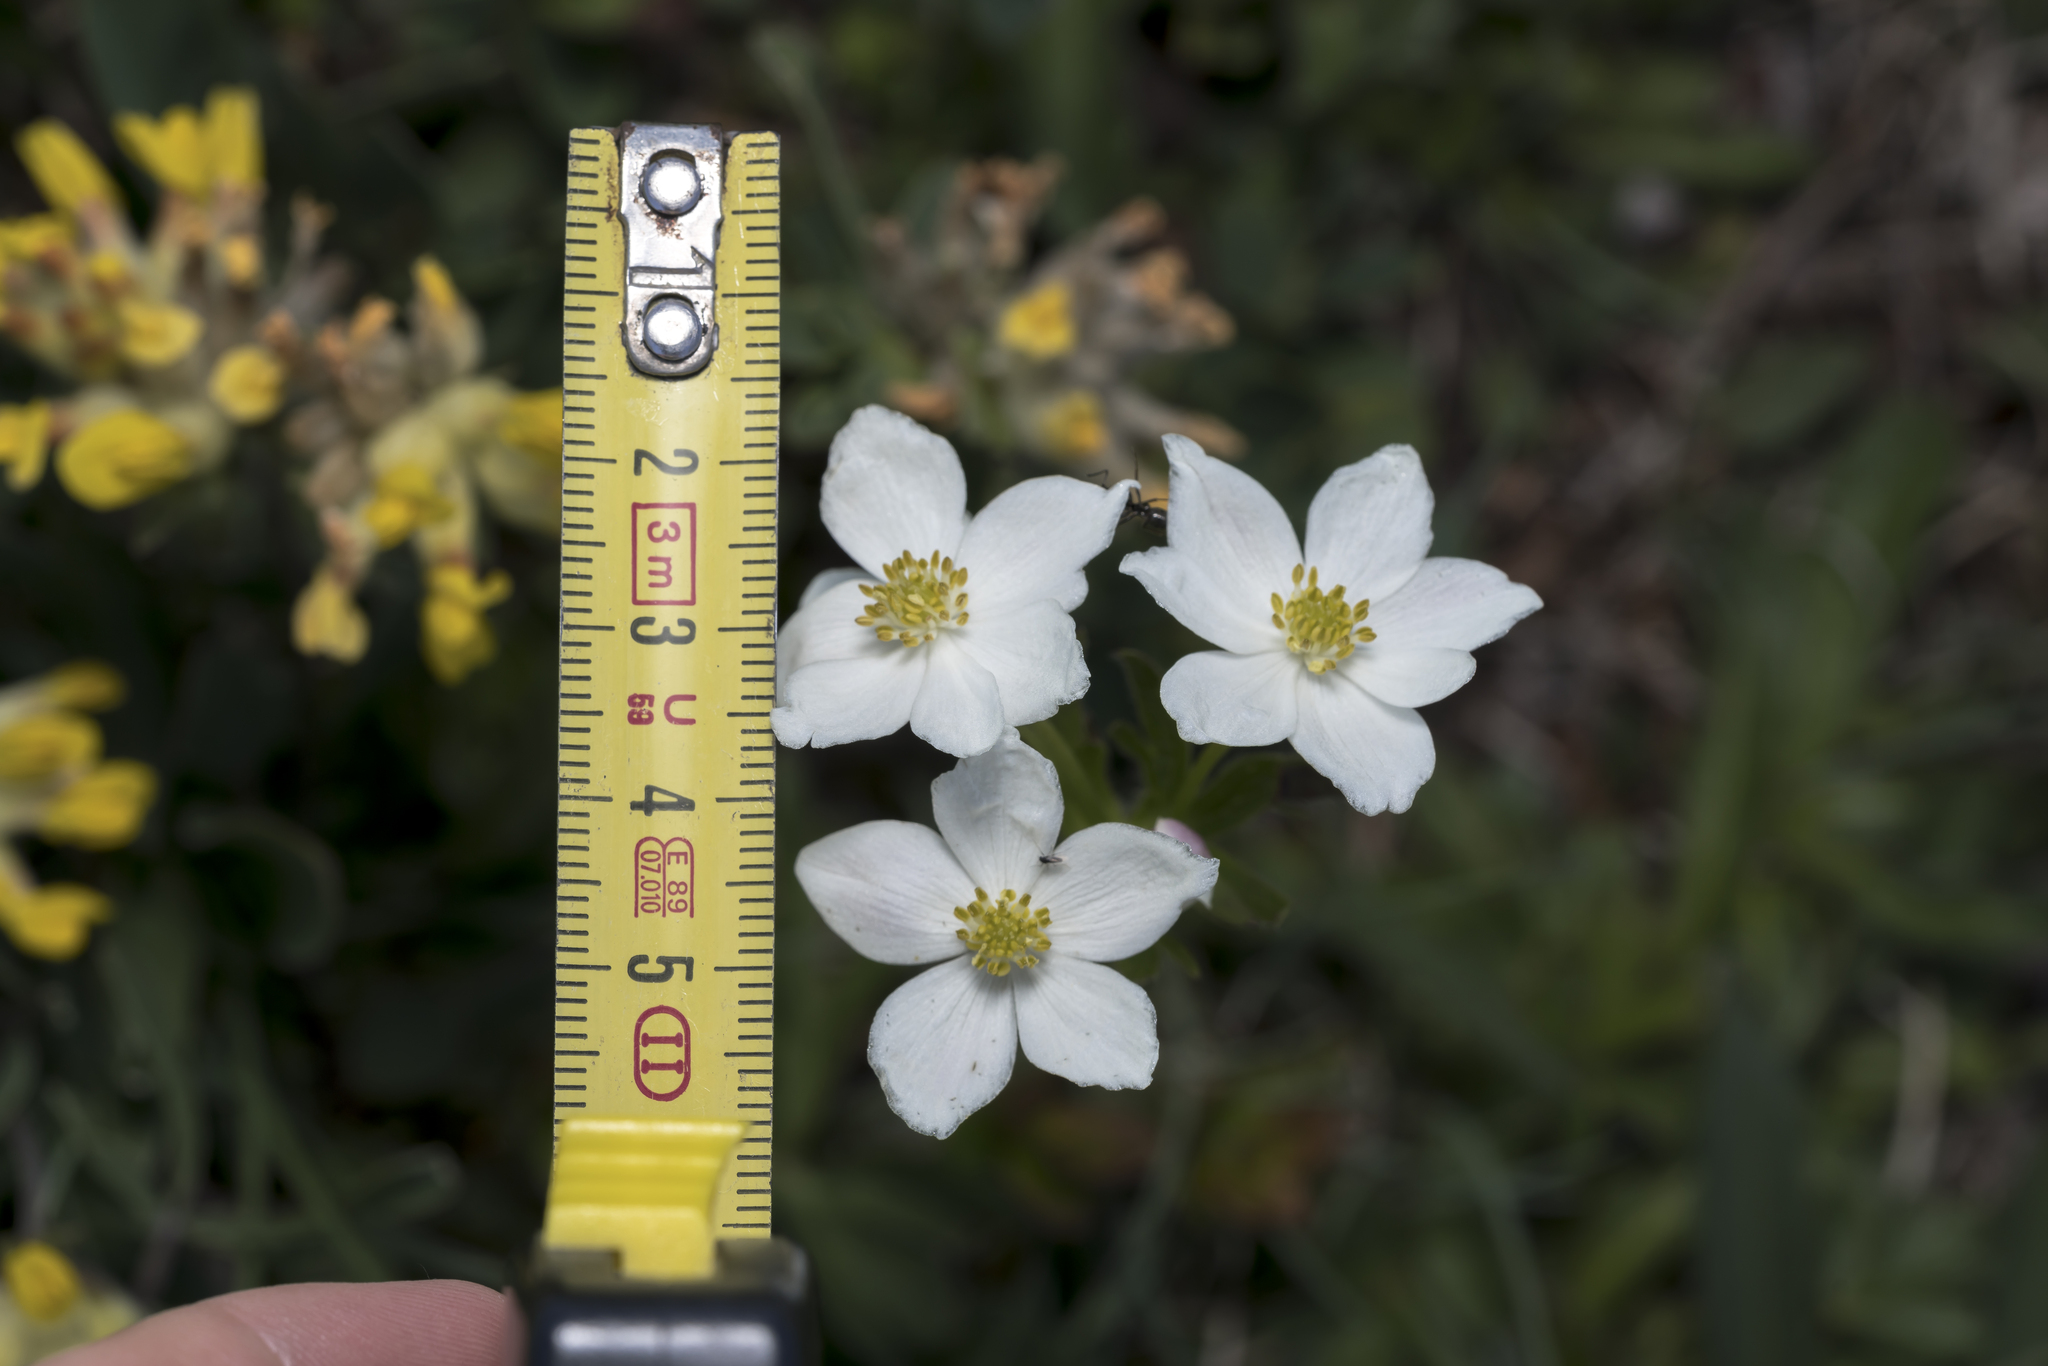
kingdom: Plantae
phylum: Tracheophyta
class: Magnoliopsida
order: Ranunculales
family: Ranunculaceae
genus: Anemonastrum
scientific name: Anemonastrum narcissiflorum
